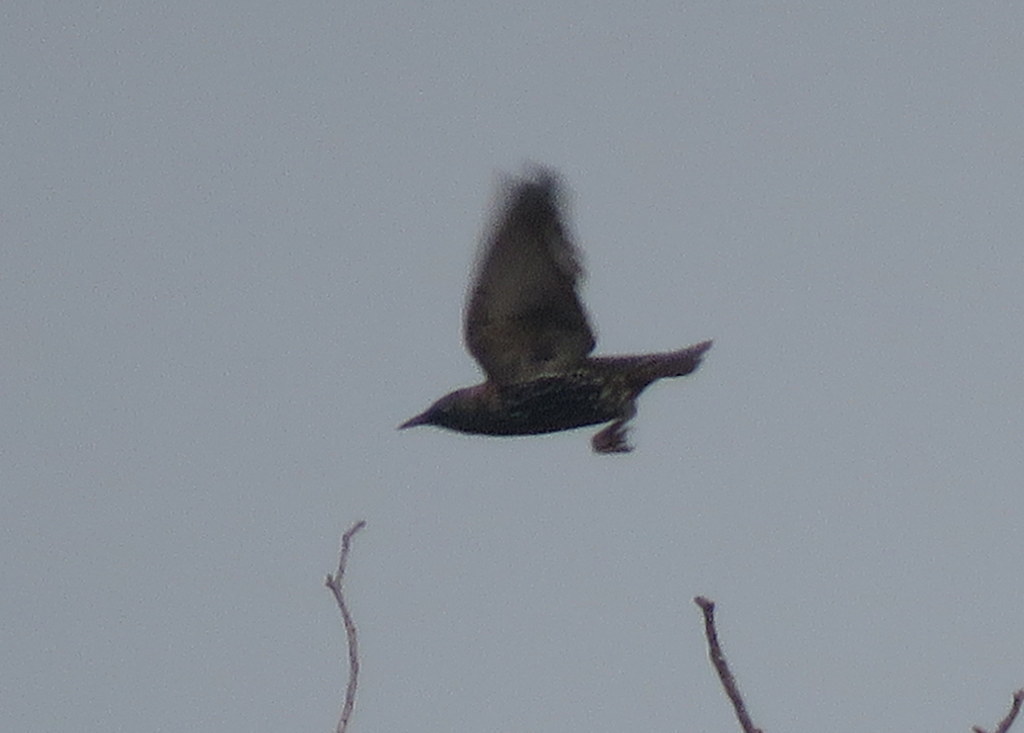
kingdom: Animalia
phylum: Chordata
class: Aves
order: Passeriformes
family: Sturnidae
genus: Sturnus
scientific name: Sturnus vulgaris
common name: Common starling
